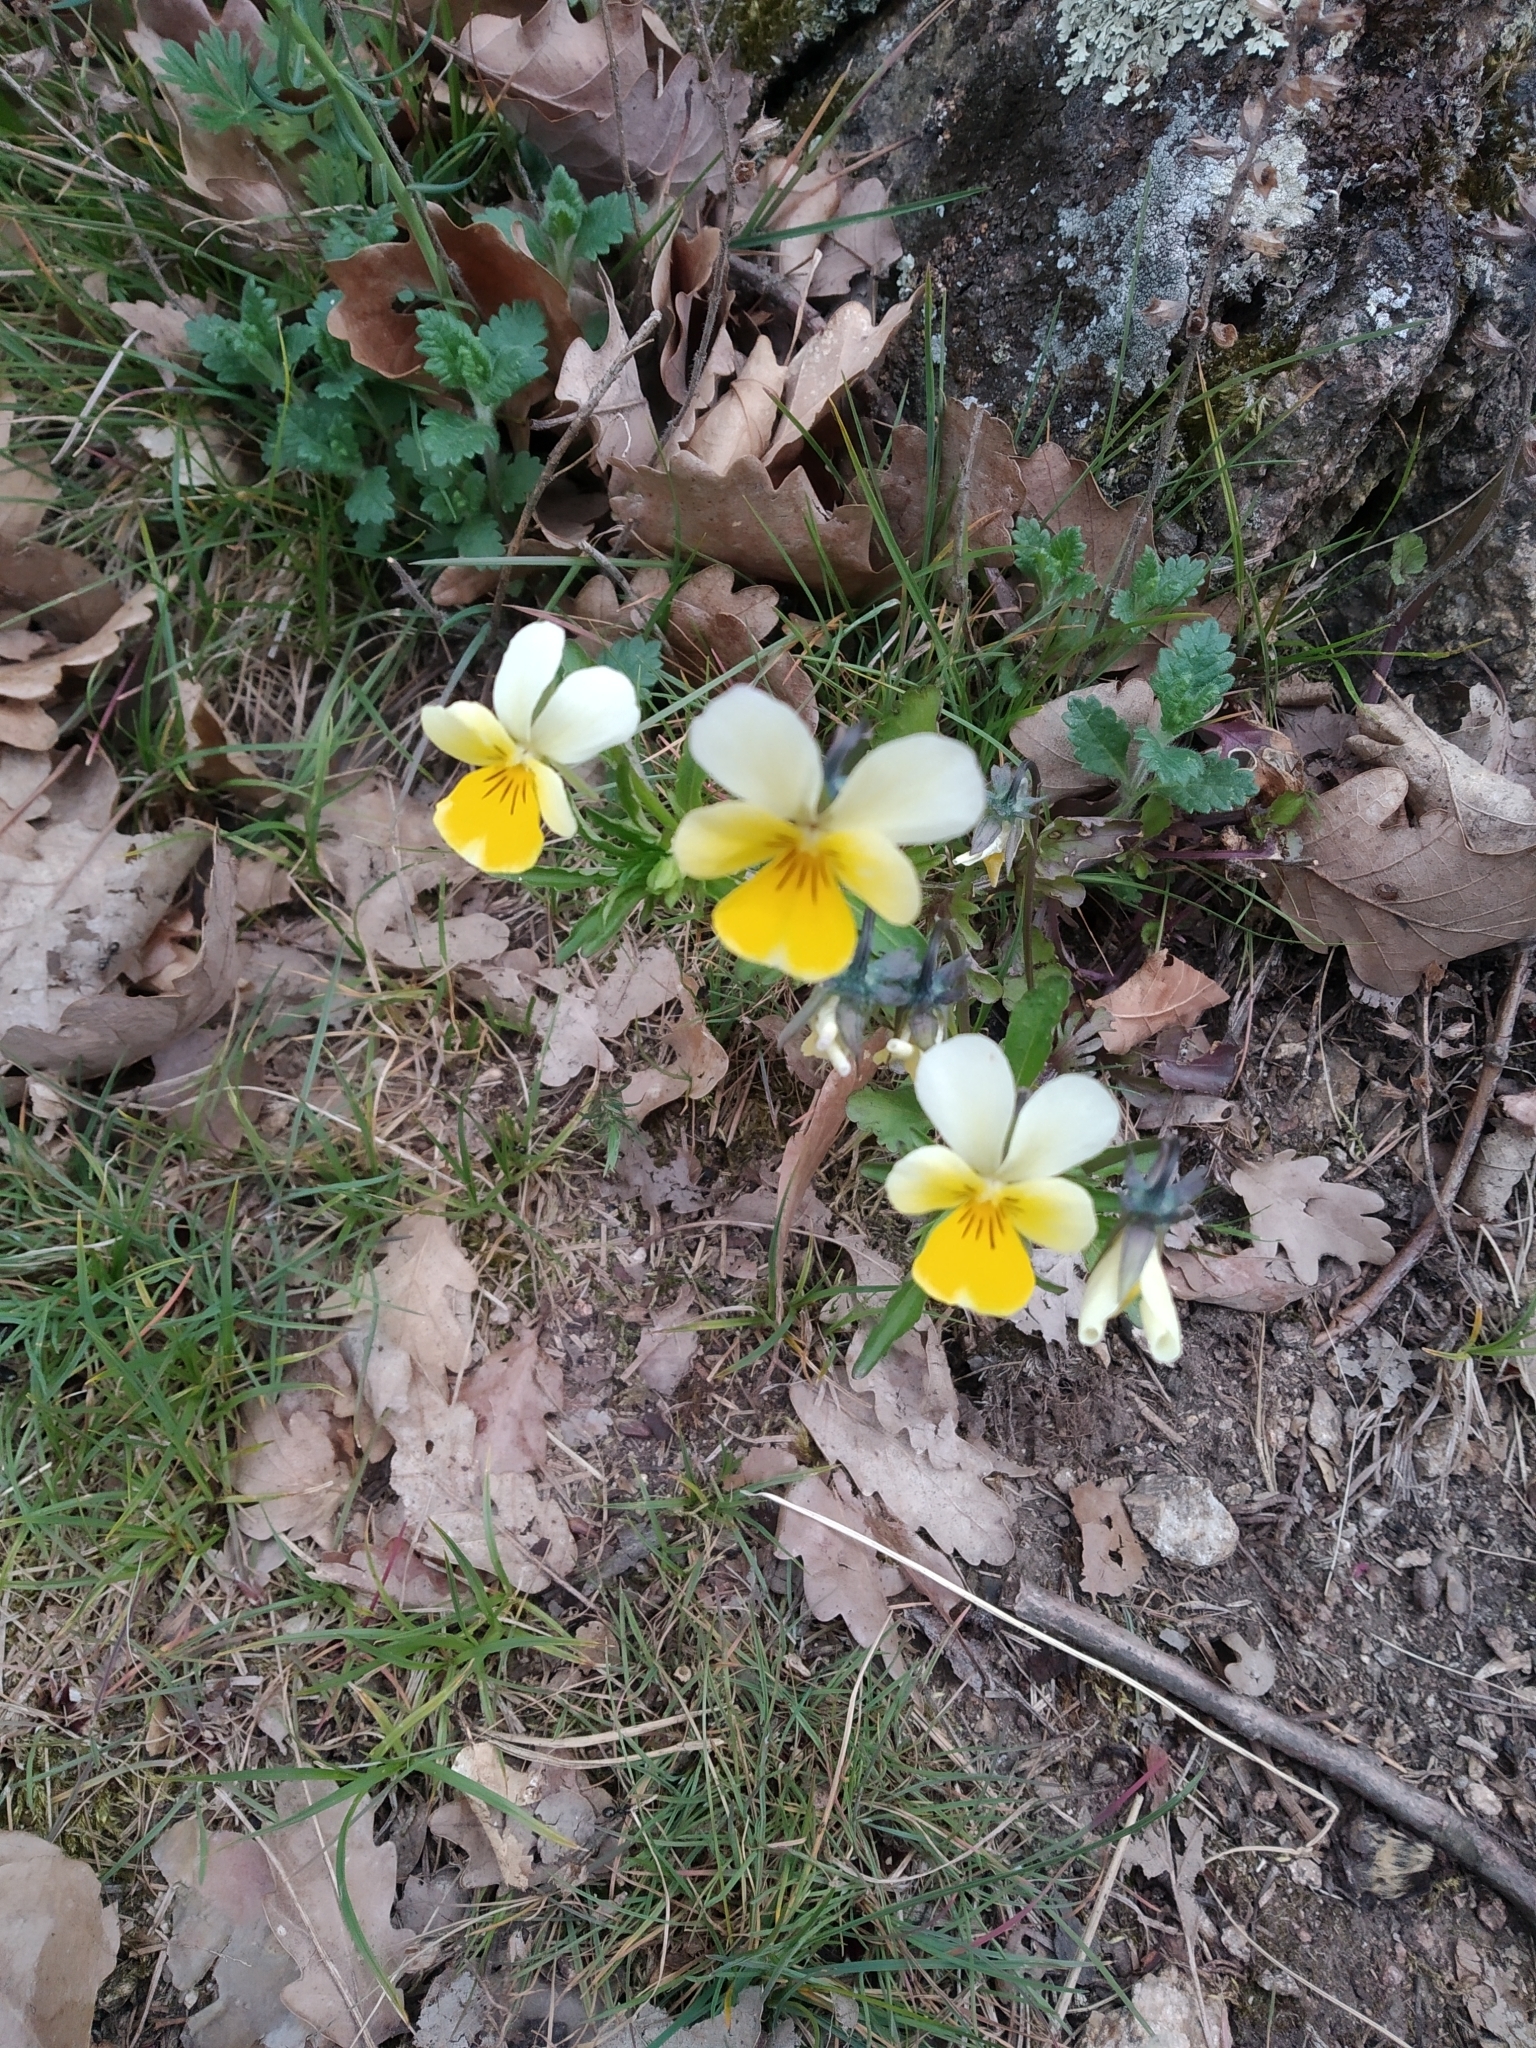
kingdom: Plantae
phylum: Tracheophyta
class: Magnoliopsida
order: Malpighiales
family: Violaceae
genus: Viola
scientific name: Viola arvensis
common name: Field pansy
